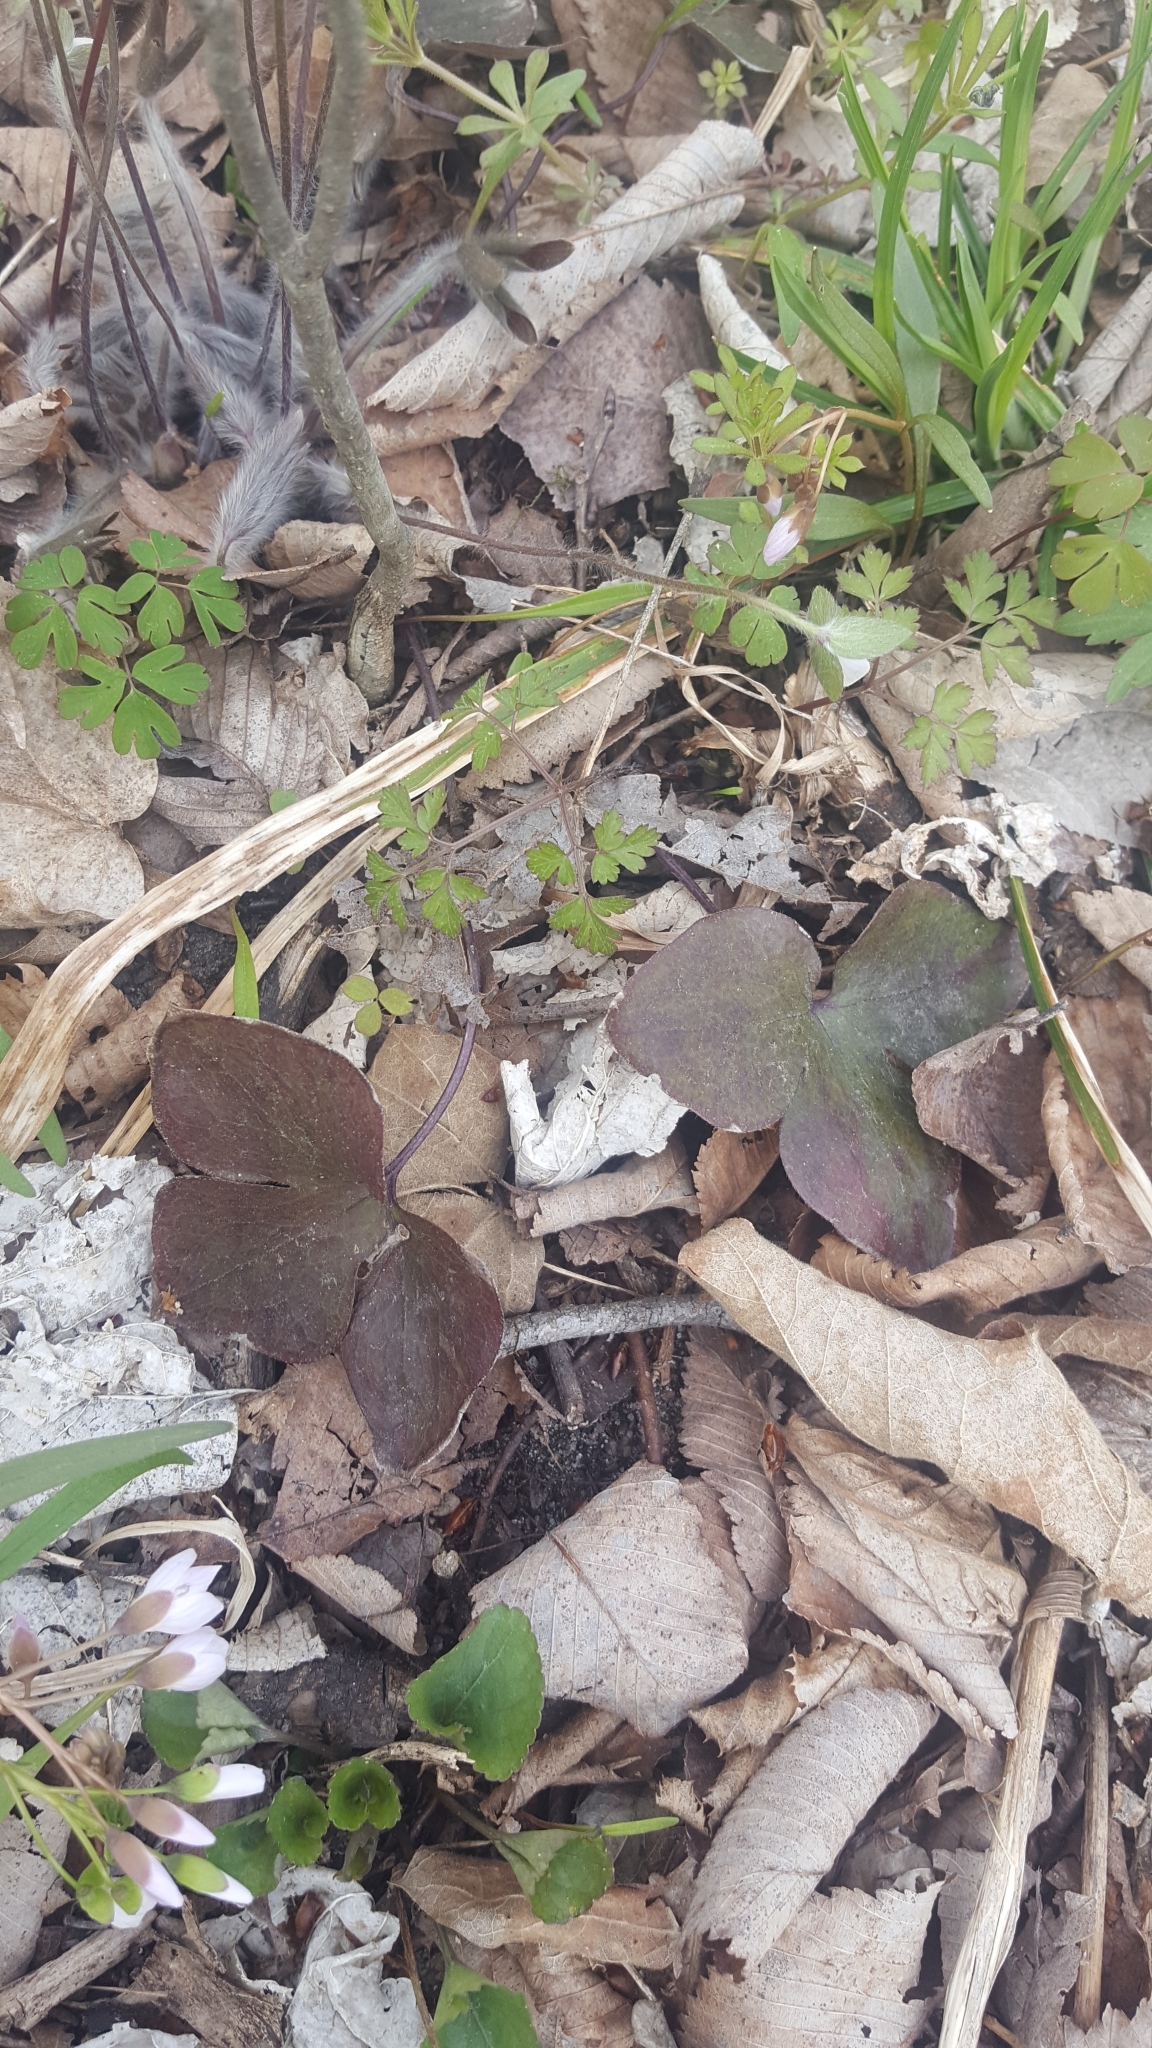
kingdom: Plantae
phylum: Tracheophyta
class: Magnoliopsida
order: Ranunculales
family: Ranunculaceae
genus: Hepatica
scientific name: Hepatica acutiloba
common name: Sharp-lobed hepatica
